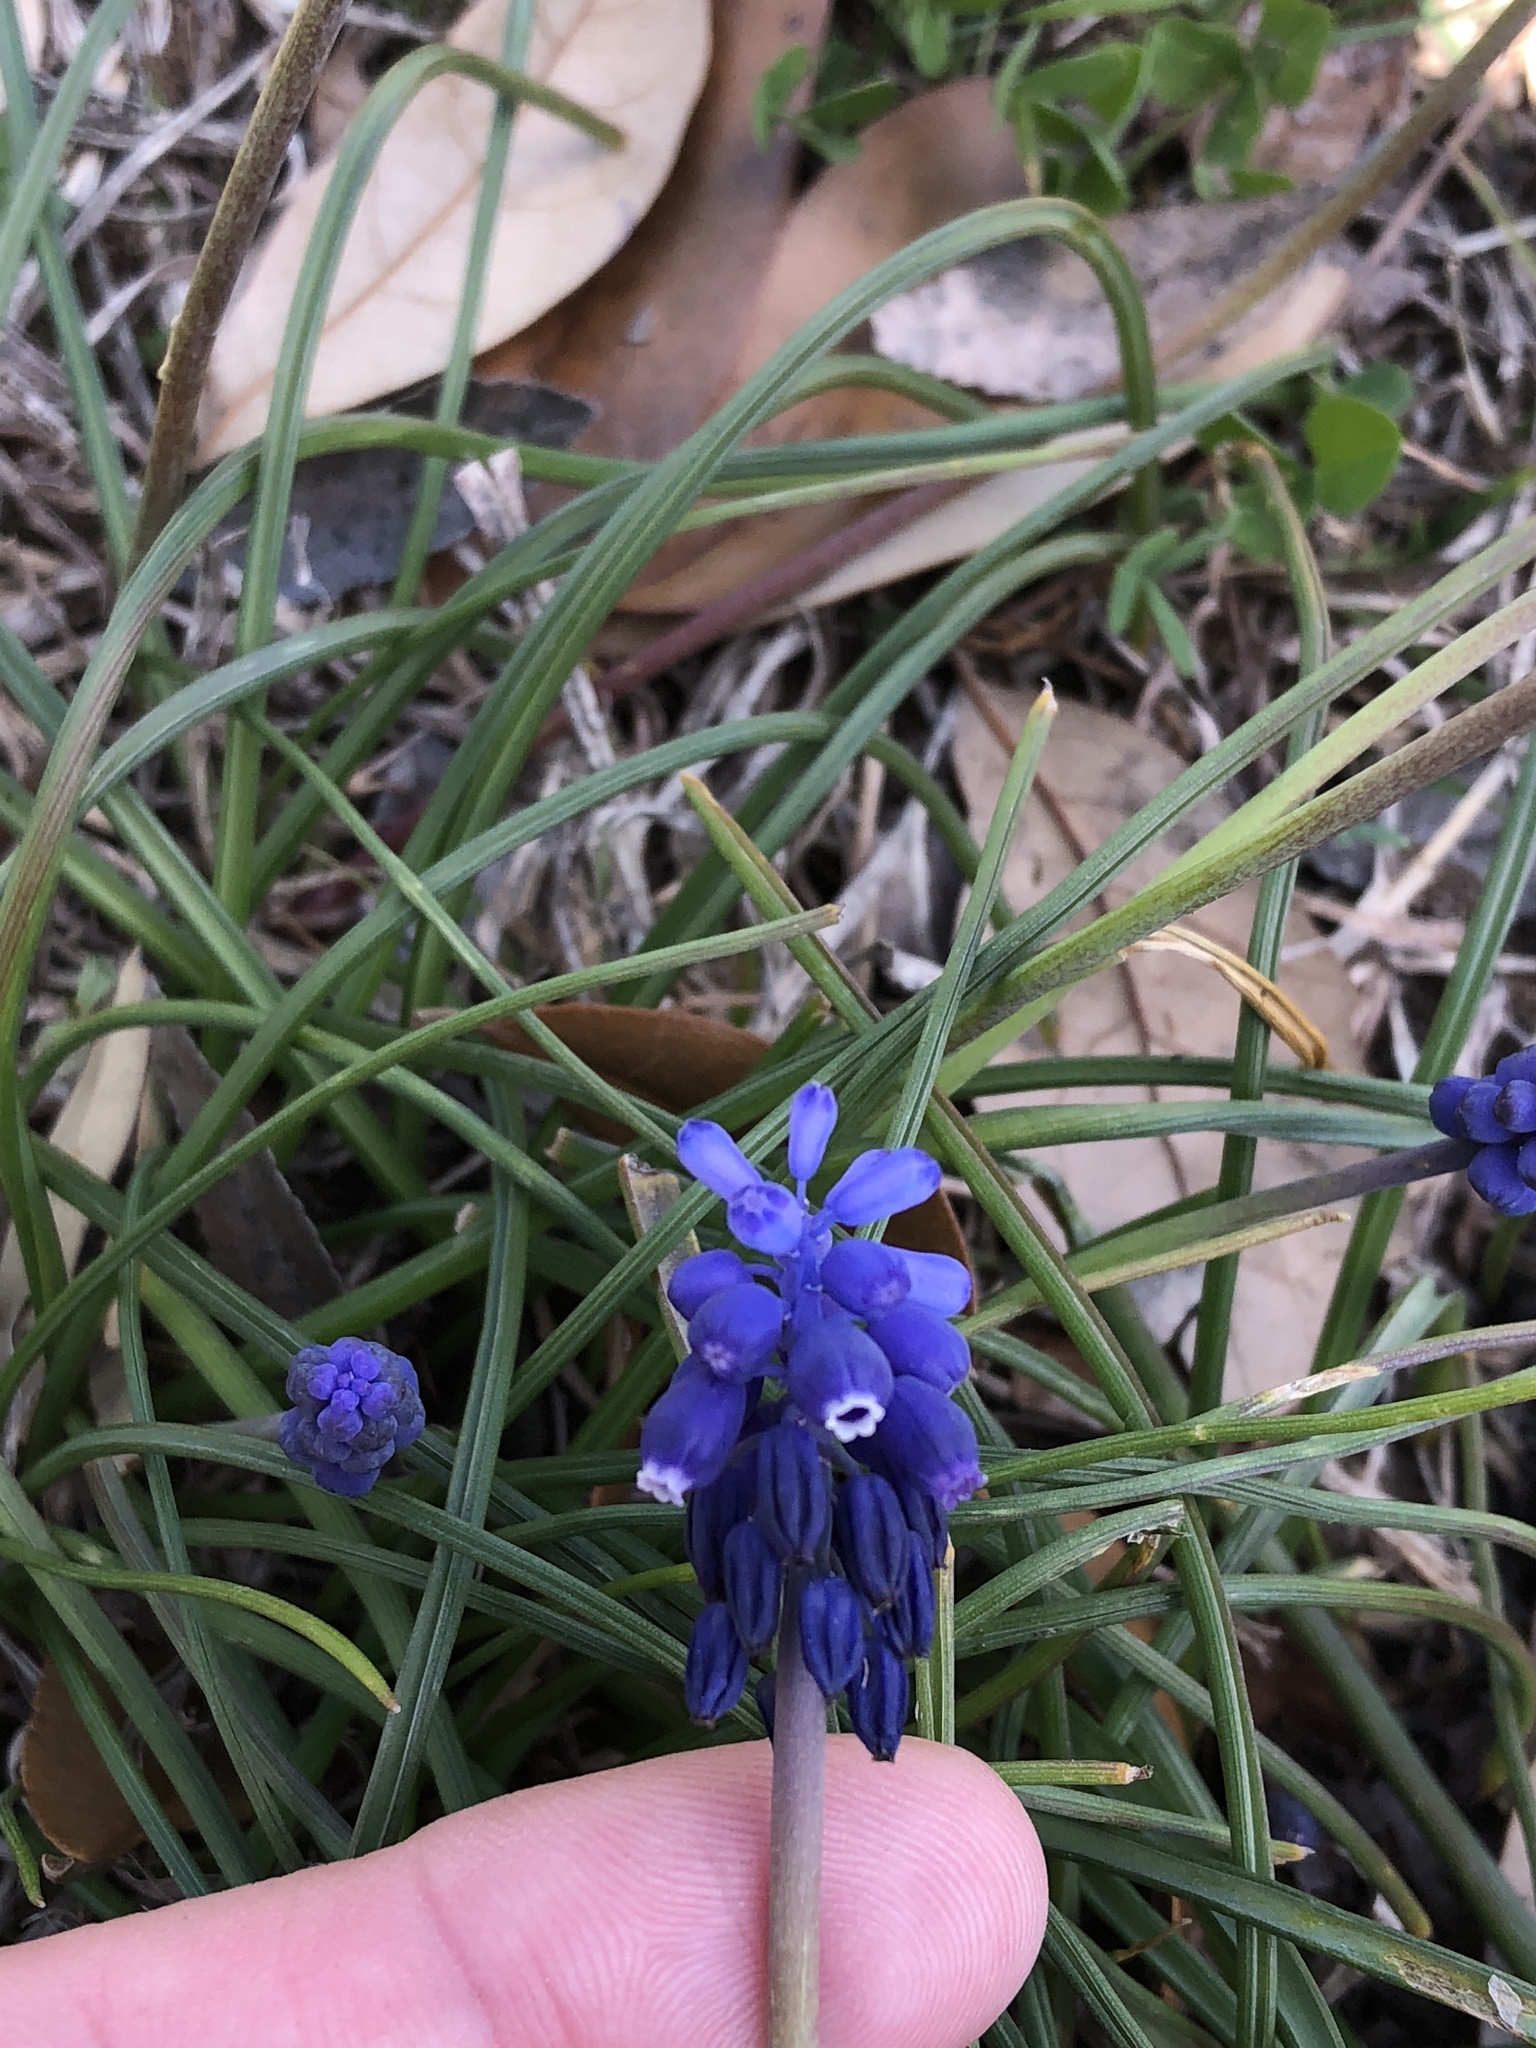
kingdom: Plantae
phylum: Tracheophyta
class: Liliopsida
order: Asparagales
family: Asparagaceae
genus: Muscari
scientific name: Muscari neglectum
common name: Grape-hyacinth
